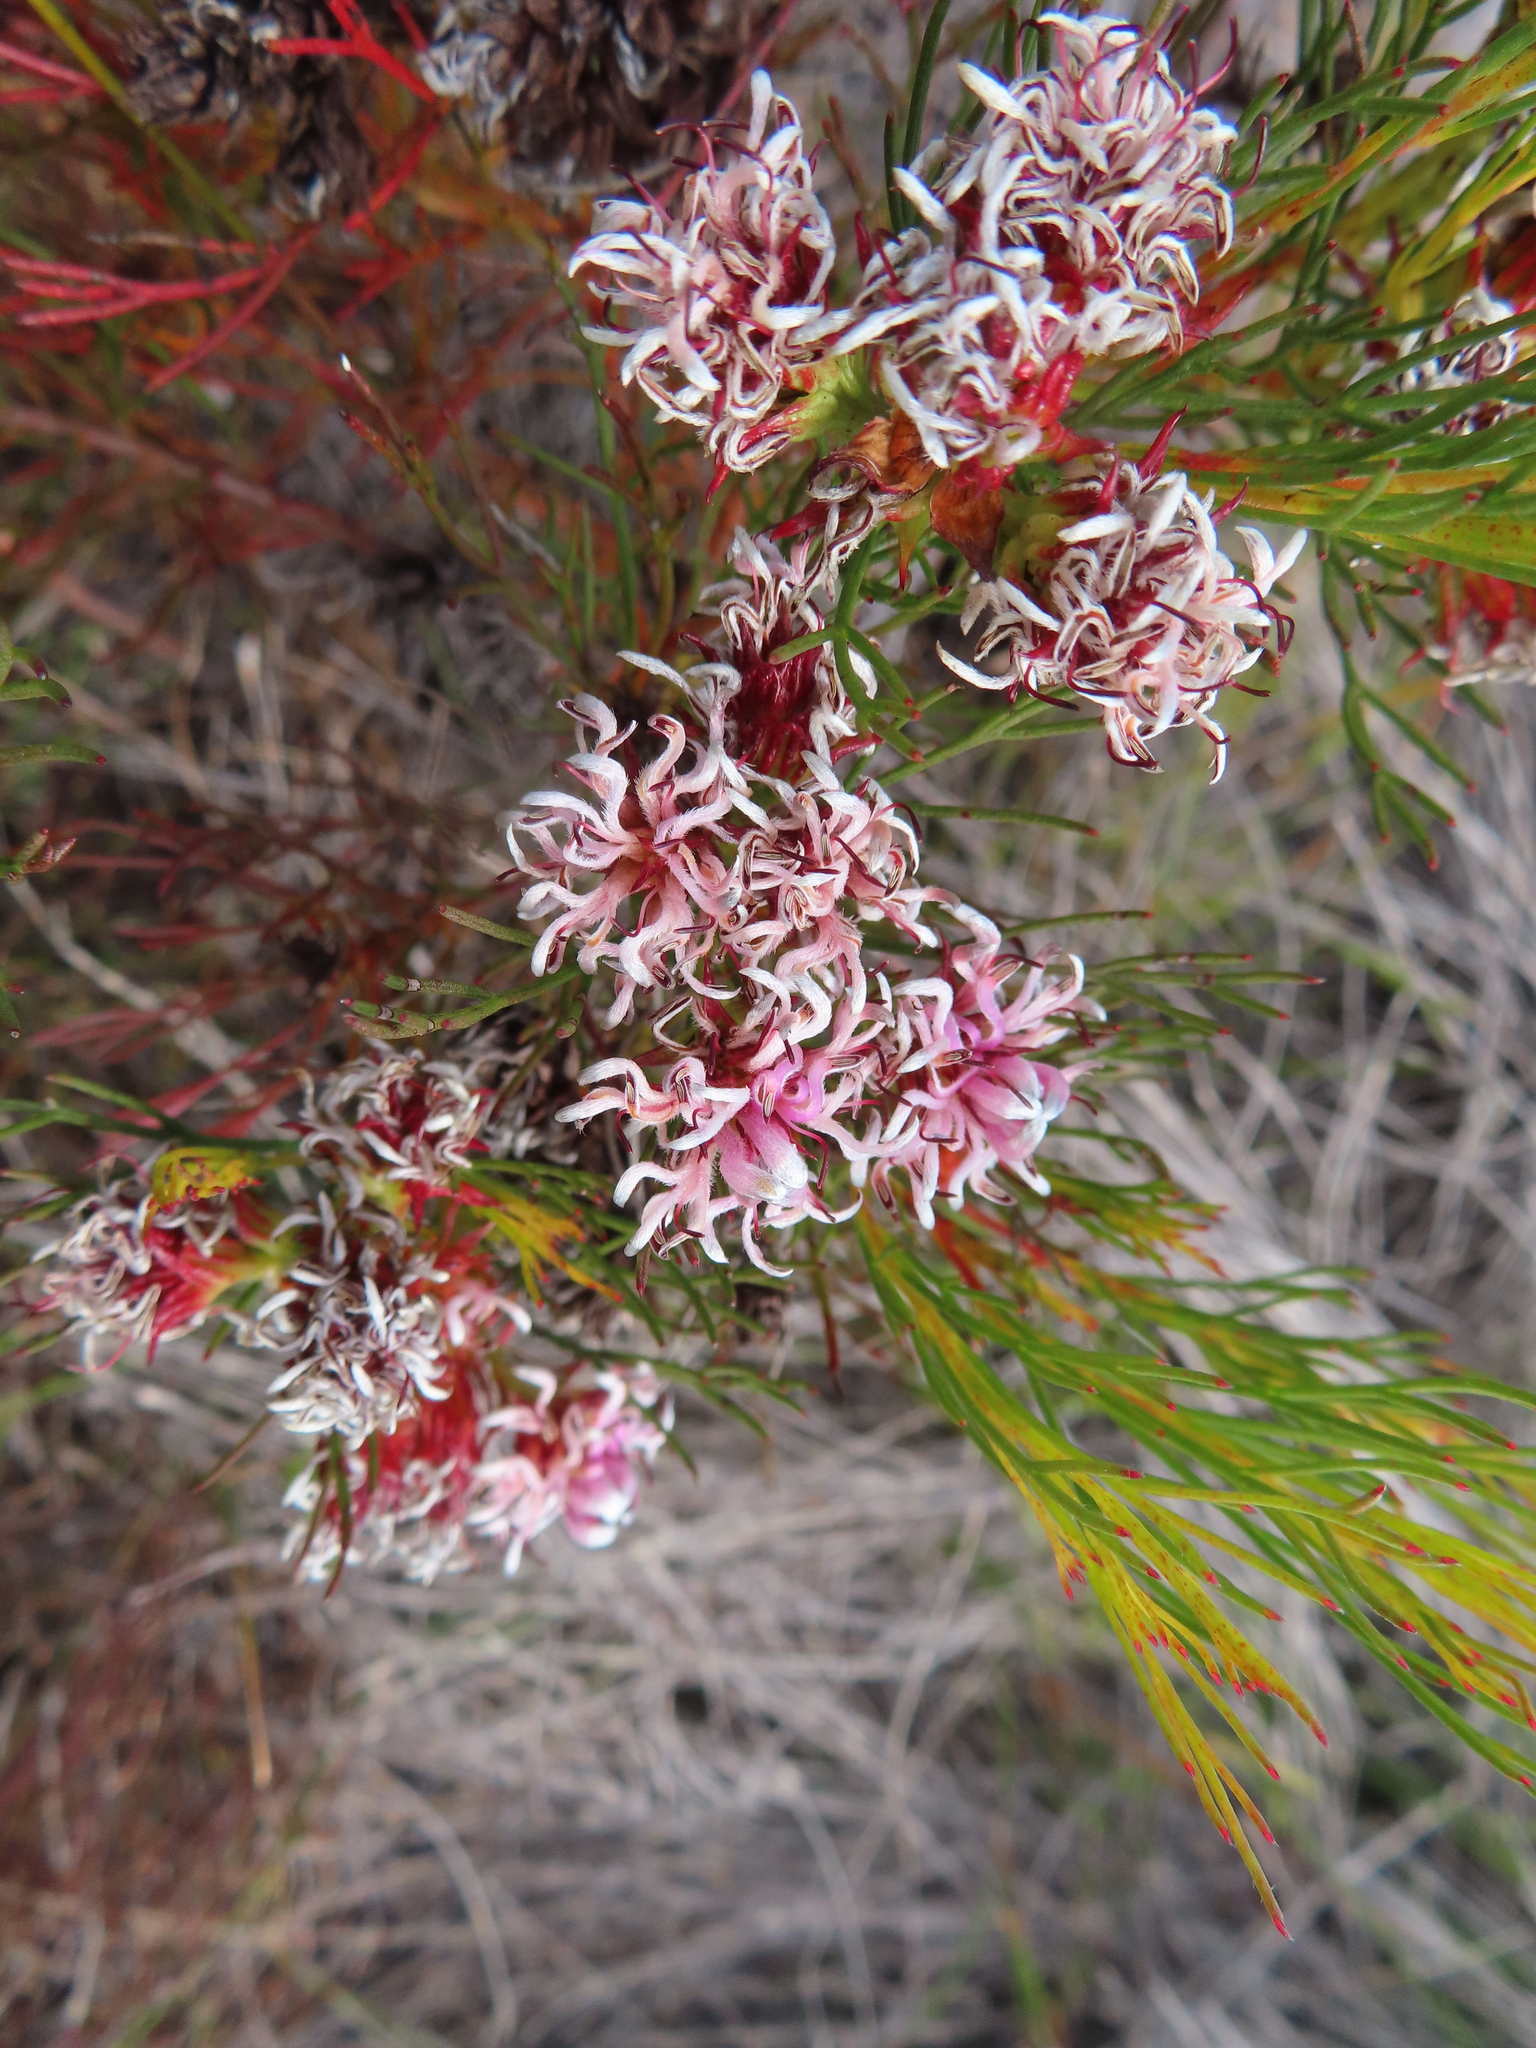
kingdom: Plantae
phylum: Tracheophyta
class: Magnoliopsida
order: Proteales
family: Proteaceae
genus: Serruria
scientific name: Serruria nervosa
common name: Fluted spiderhead
